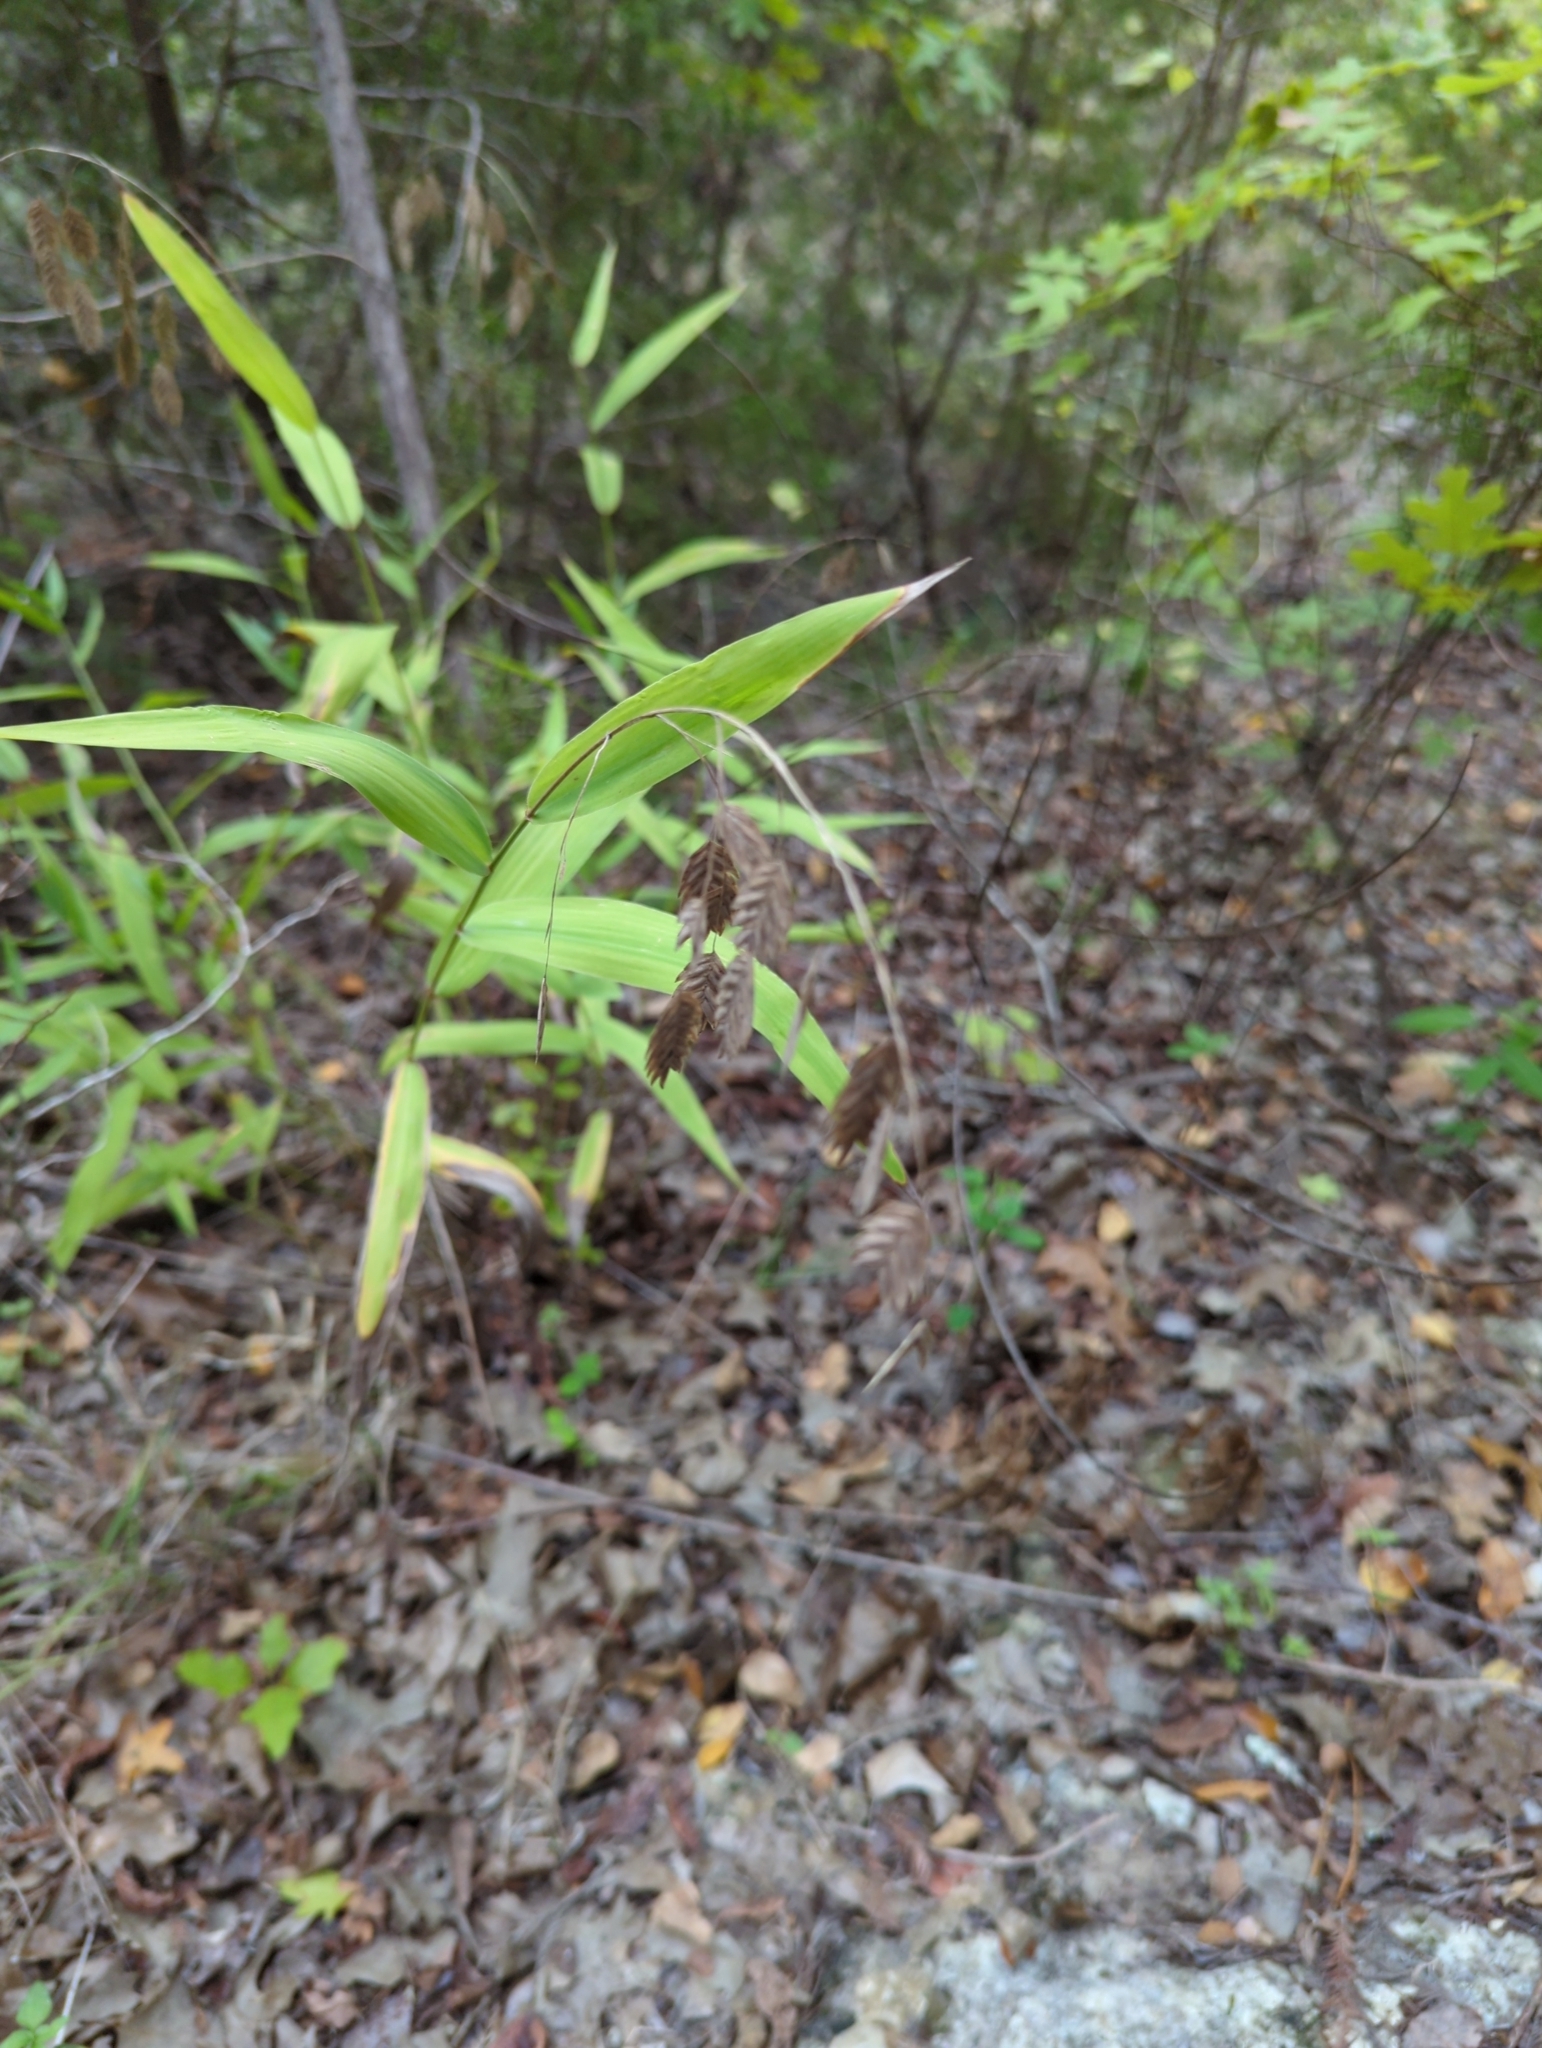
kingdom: Plantae
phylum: Tracheophyta
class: Liliopsida
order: Poales
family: Poaceae
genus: Chasmanthium
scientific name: Chasmanthium latifolium
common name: Broad-leaved chasmanthium
